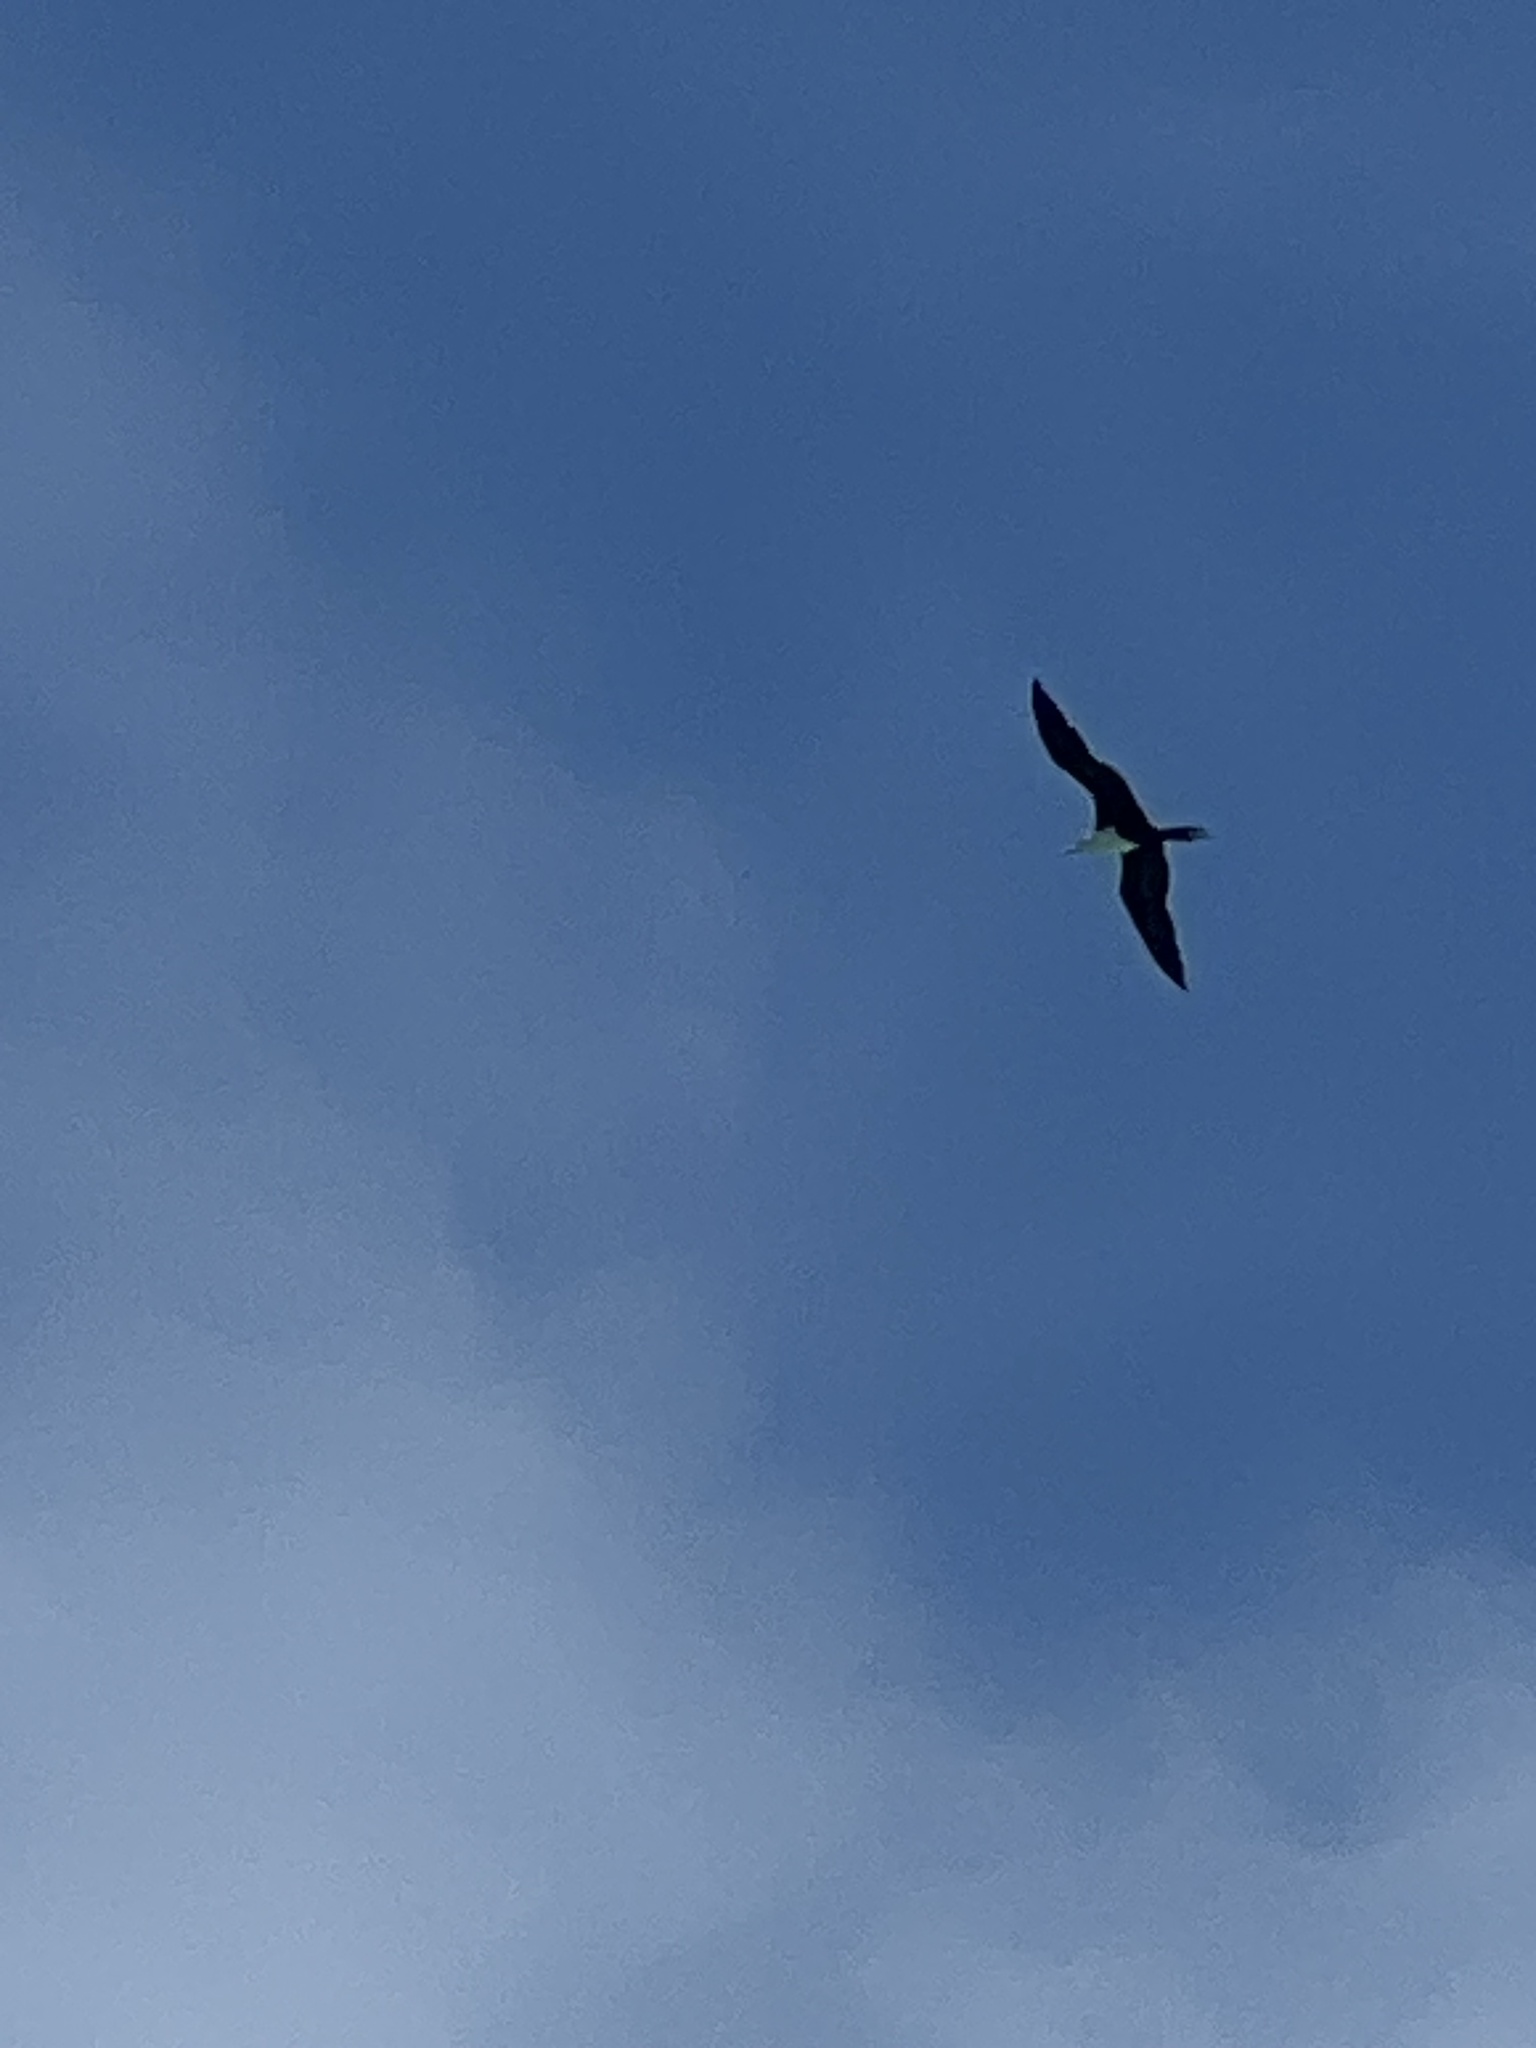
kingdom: Animalia
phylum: Chordata
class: Aves
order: Suliformes
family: Fregatidae
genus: Fregata
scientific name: Fregata magnificens
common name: Magnificent frigatebird
